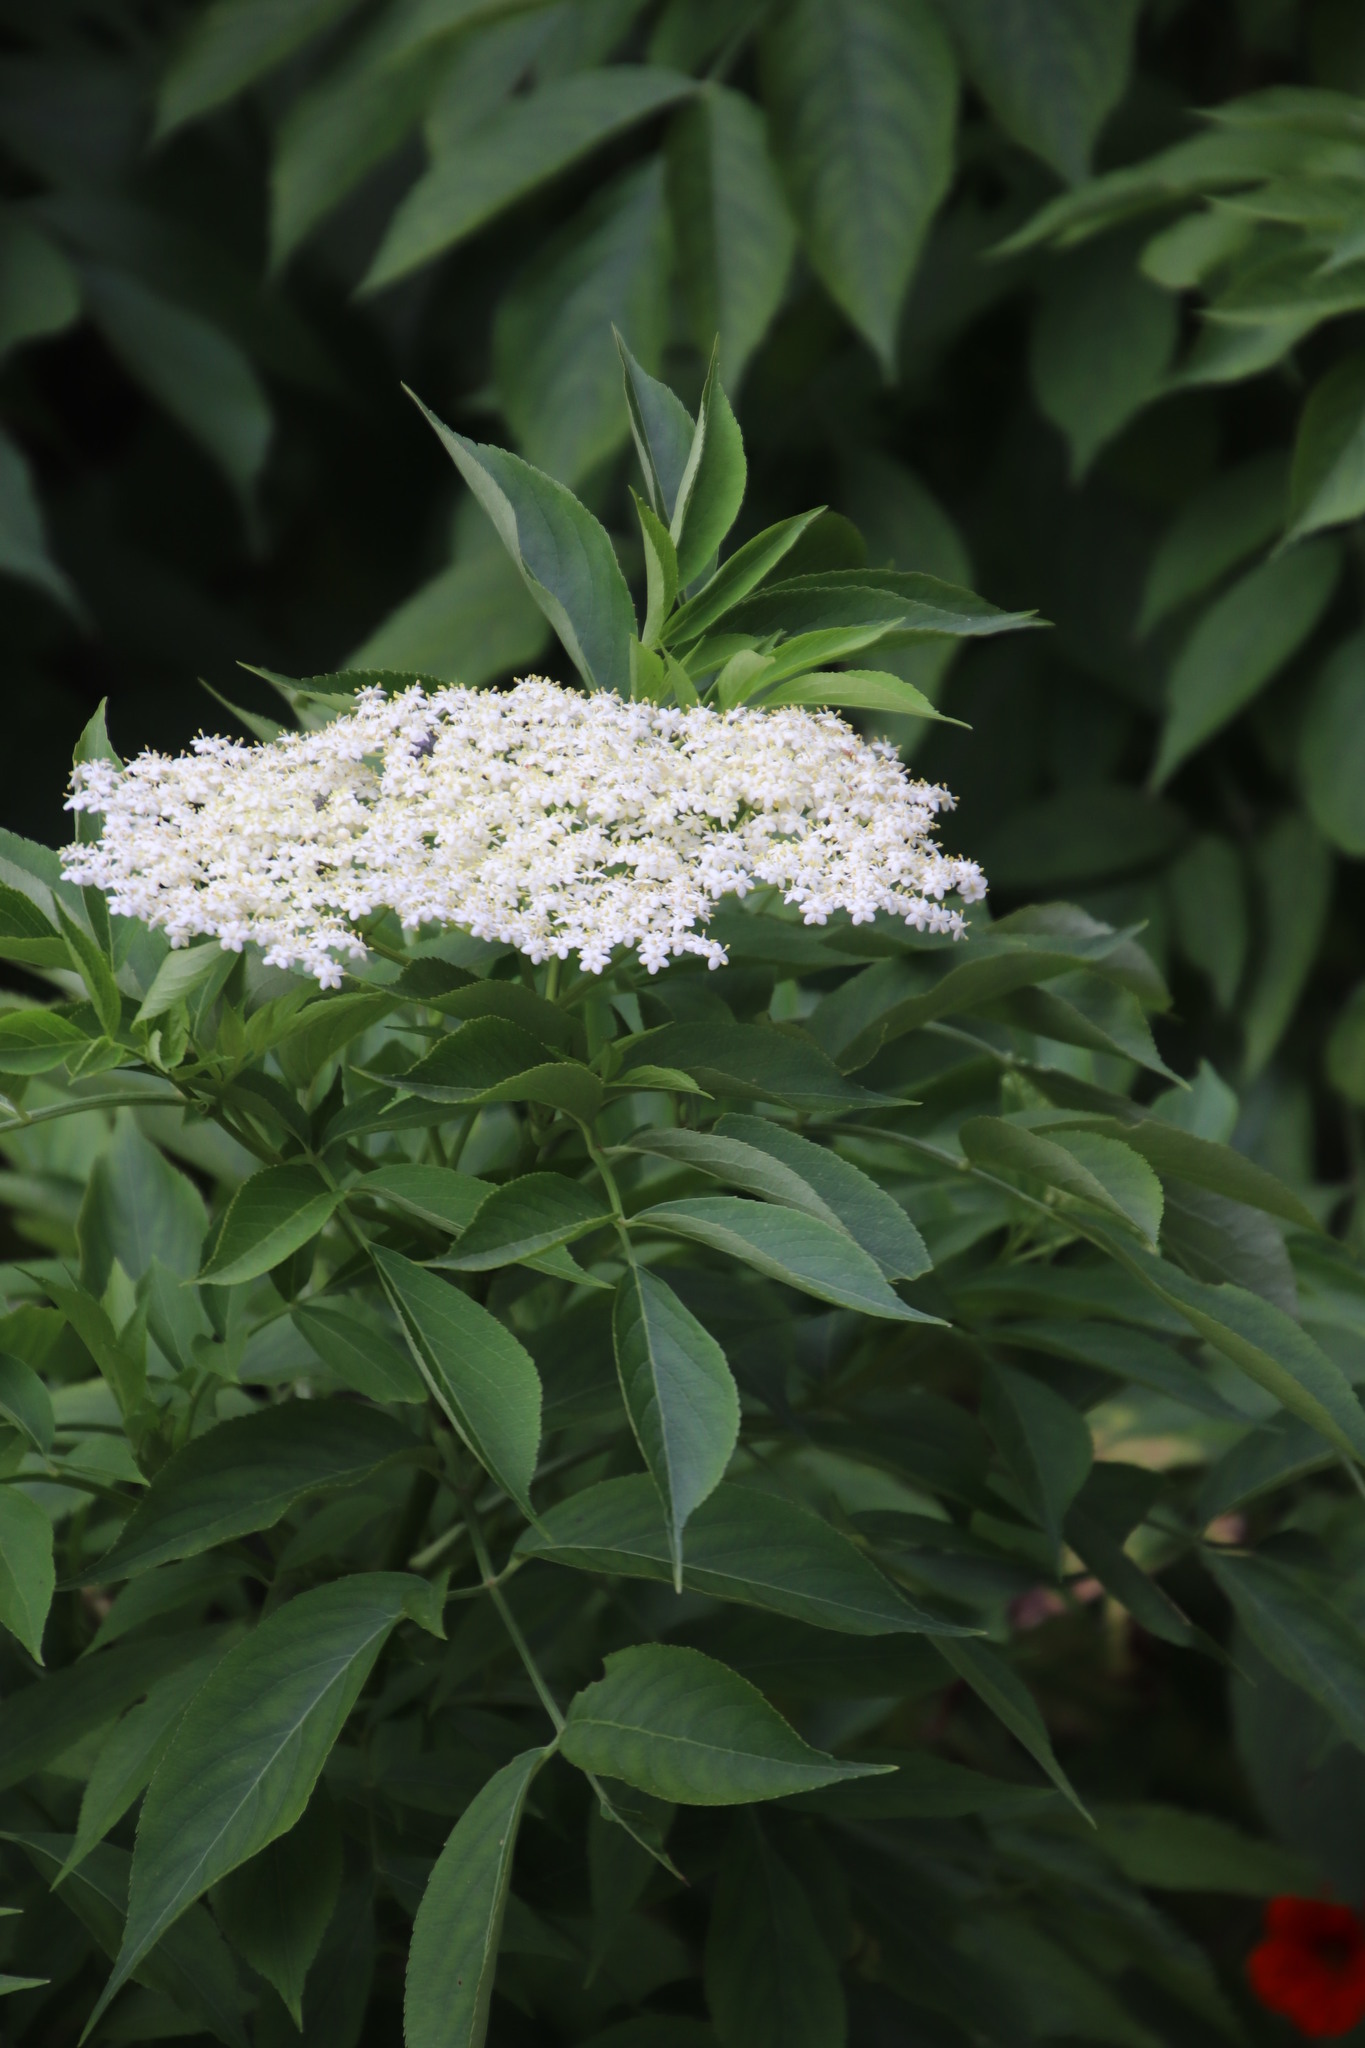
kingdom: Plantae
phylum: Tracheophyta
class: Magnoliopsida
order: Dipsacales
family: Viburnaceae
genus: Sambucus
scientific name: Sambucus nigra
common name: Elder
